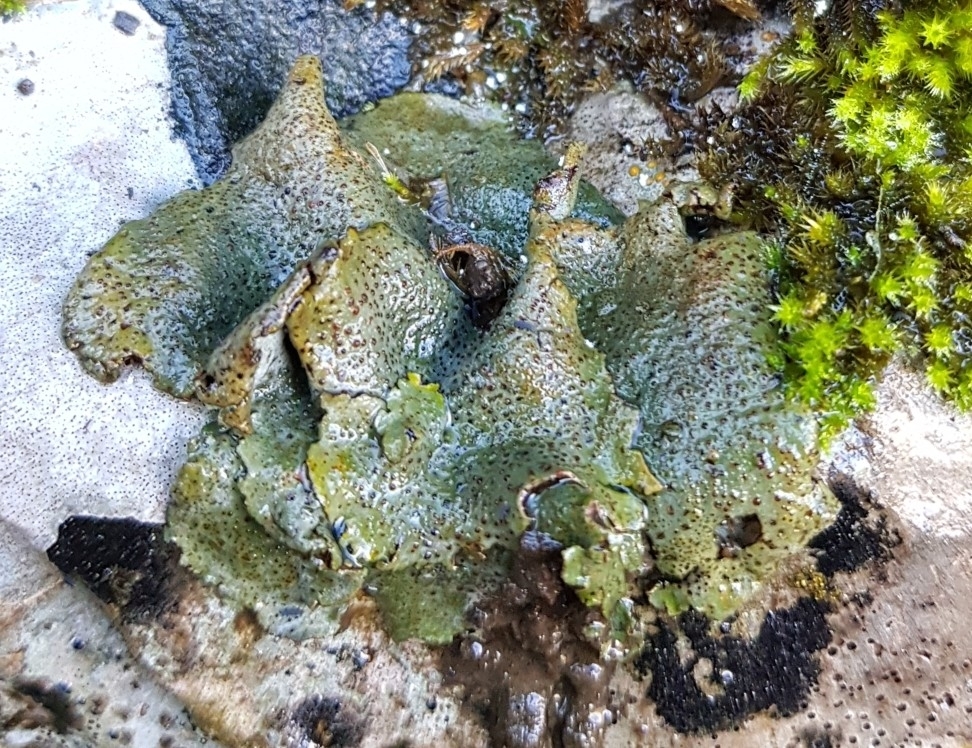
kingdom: Fungi
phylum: Ascomycota
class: Eurotiomycetes
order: Verrucariales
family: Verrucariaceae
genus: Dermatocarpon
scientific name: Dermatocarpon miniatum
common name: Leather lichen
